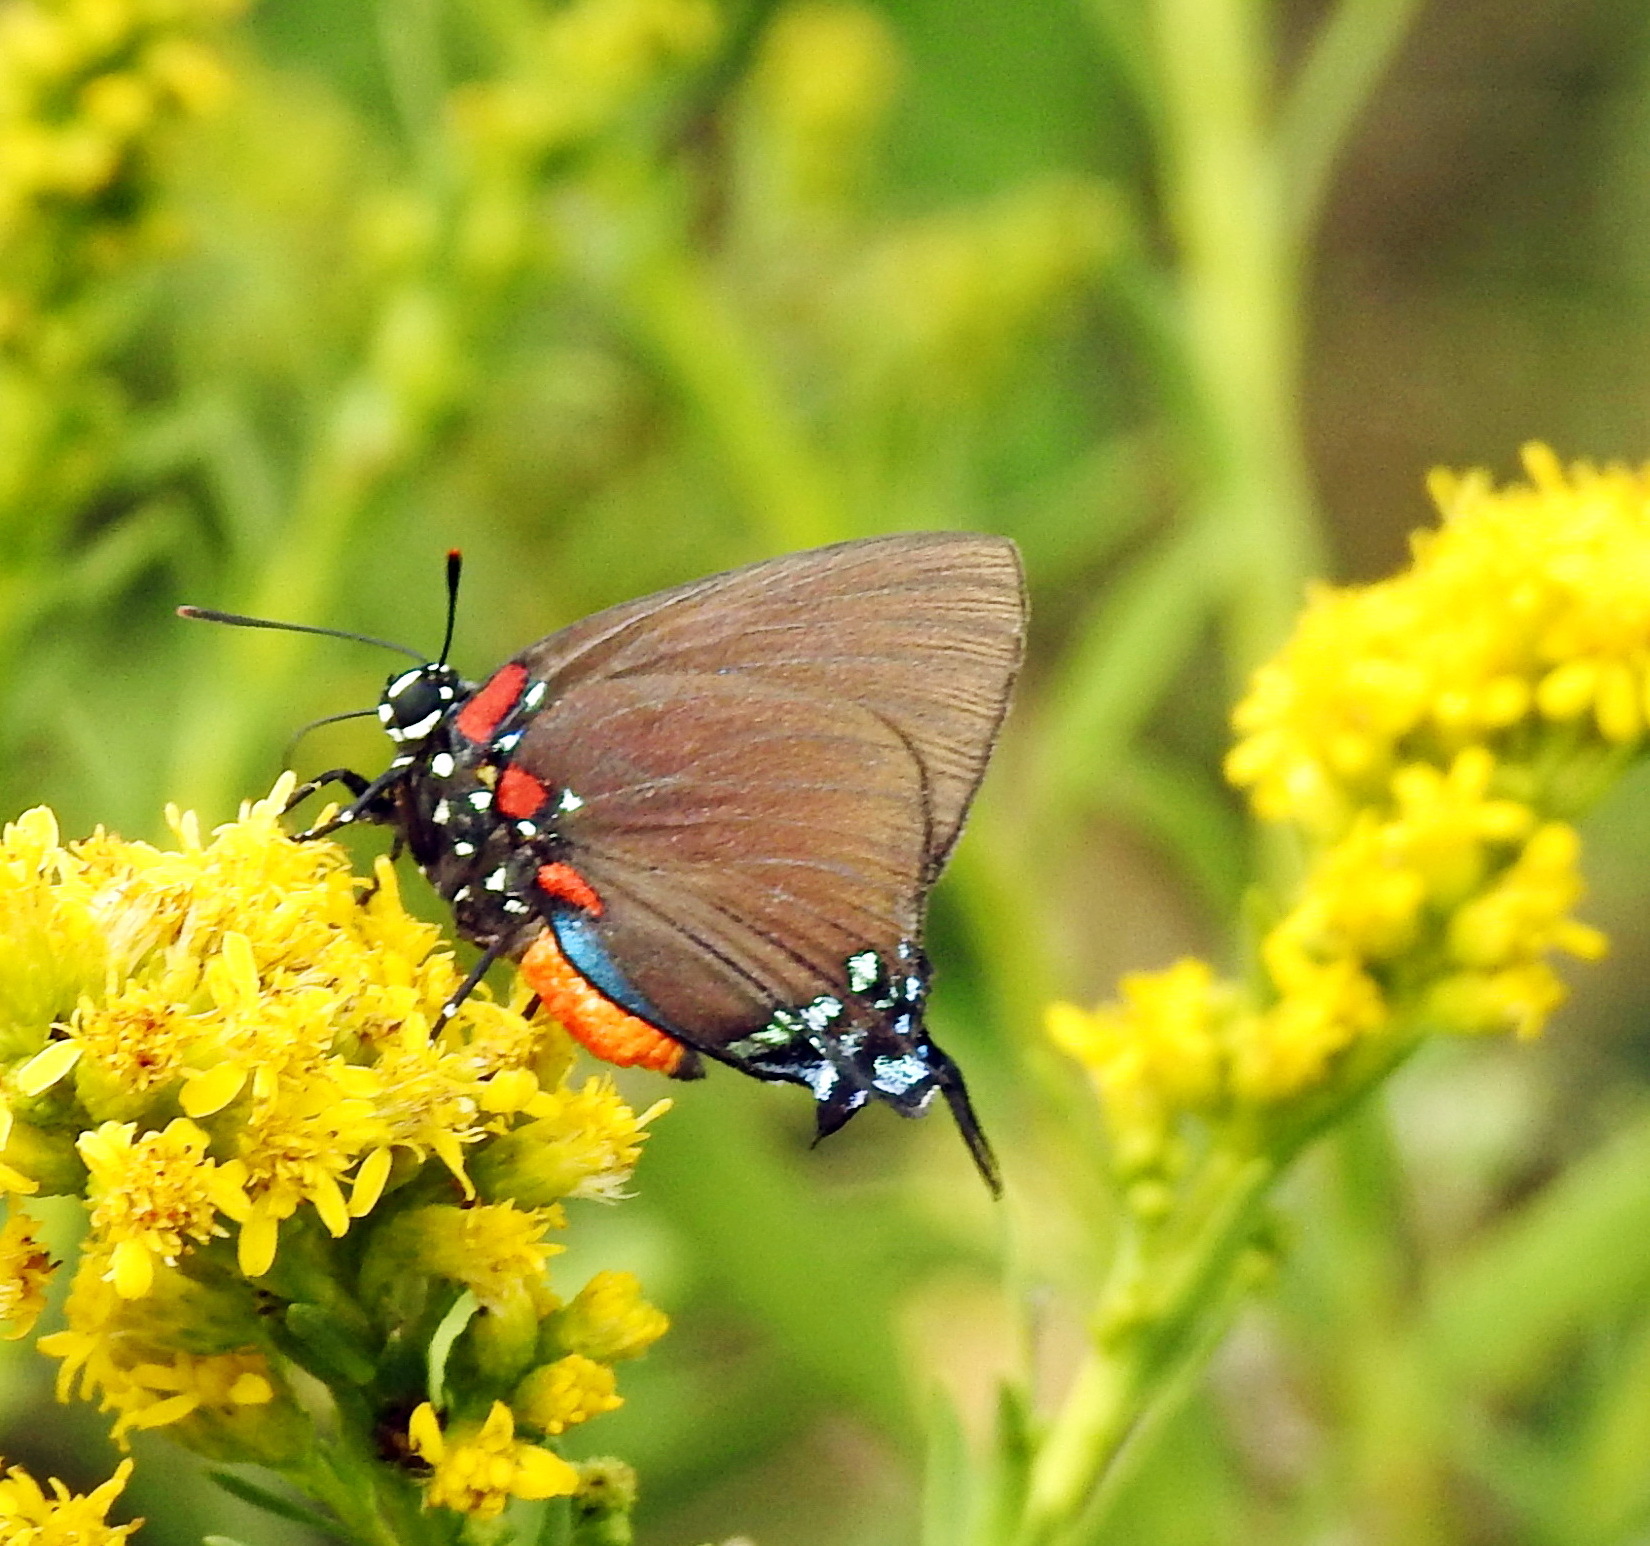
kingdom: Animalia
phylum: Arthropoda
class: Insecta
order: Lepidoptera
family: Lycaenidae
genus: Atlides
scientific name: Atlides halesus
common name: Great purple hairstreak
